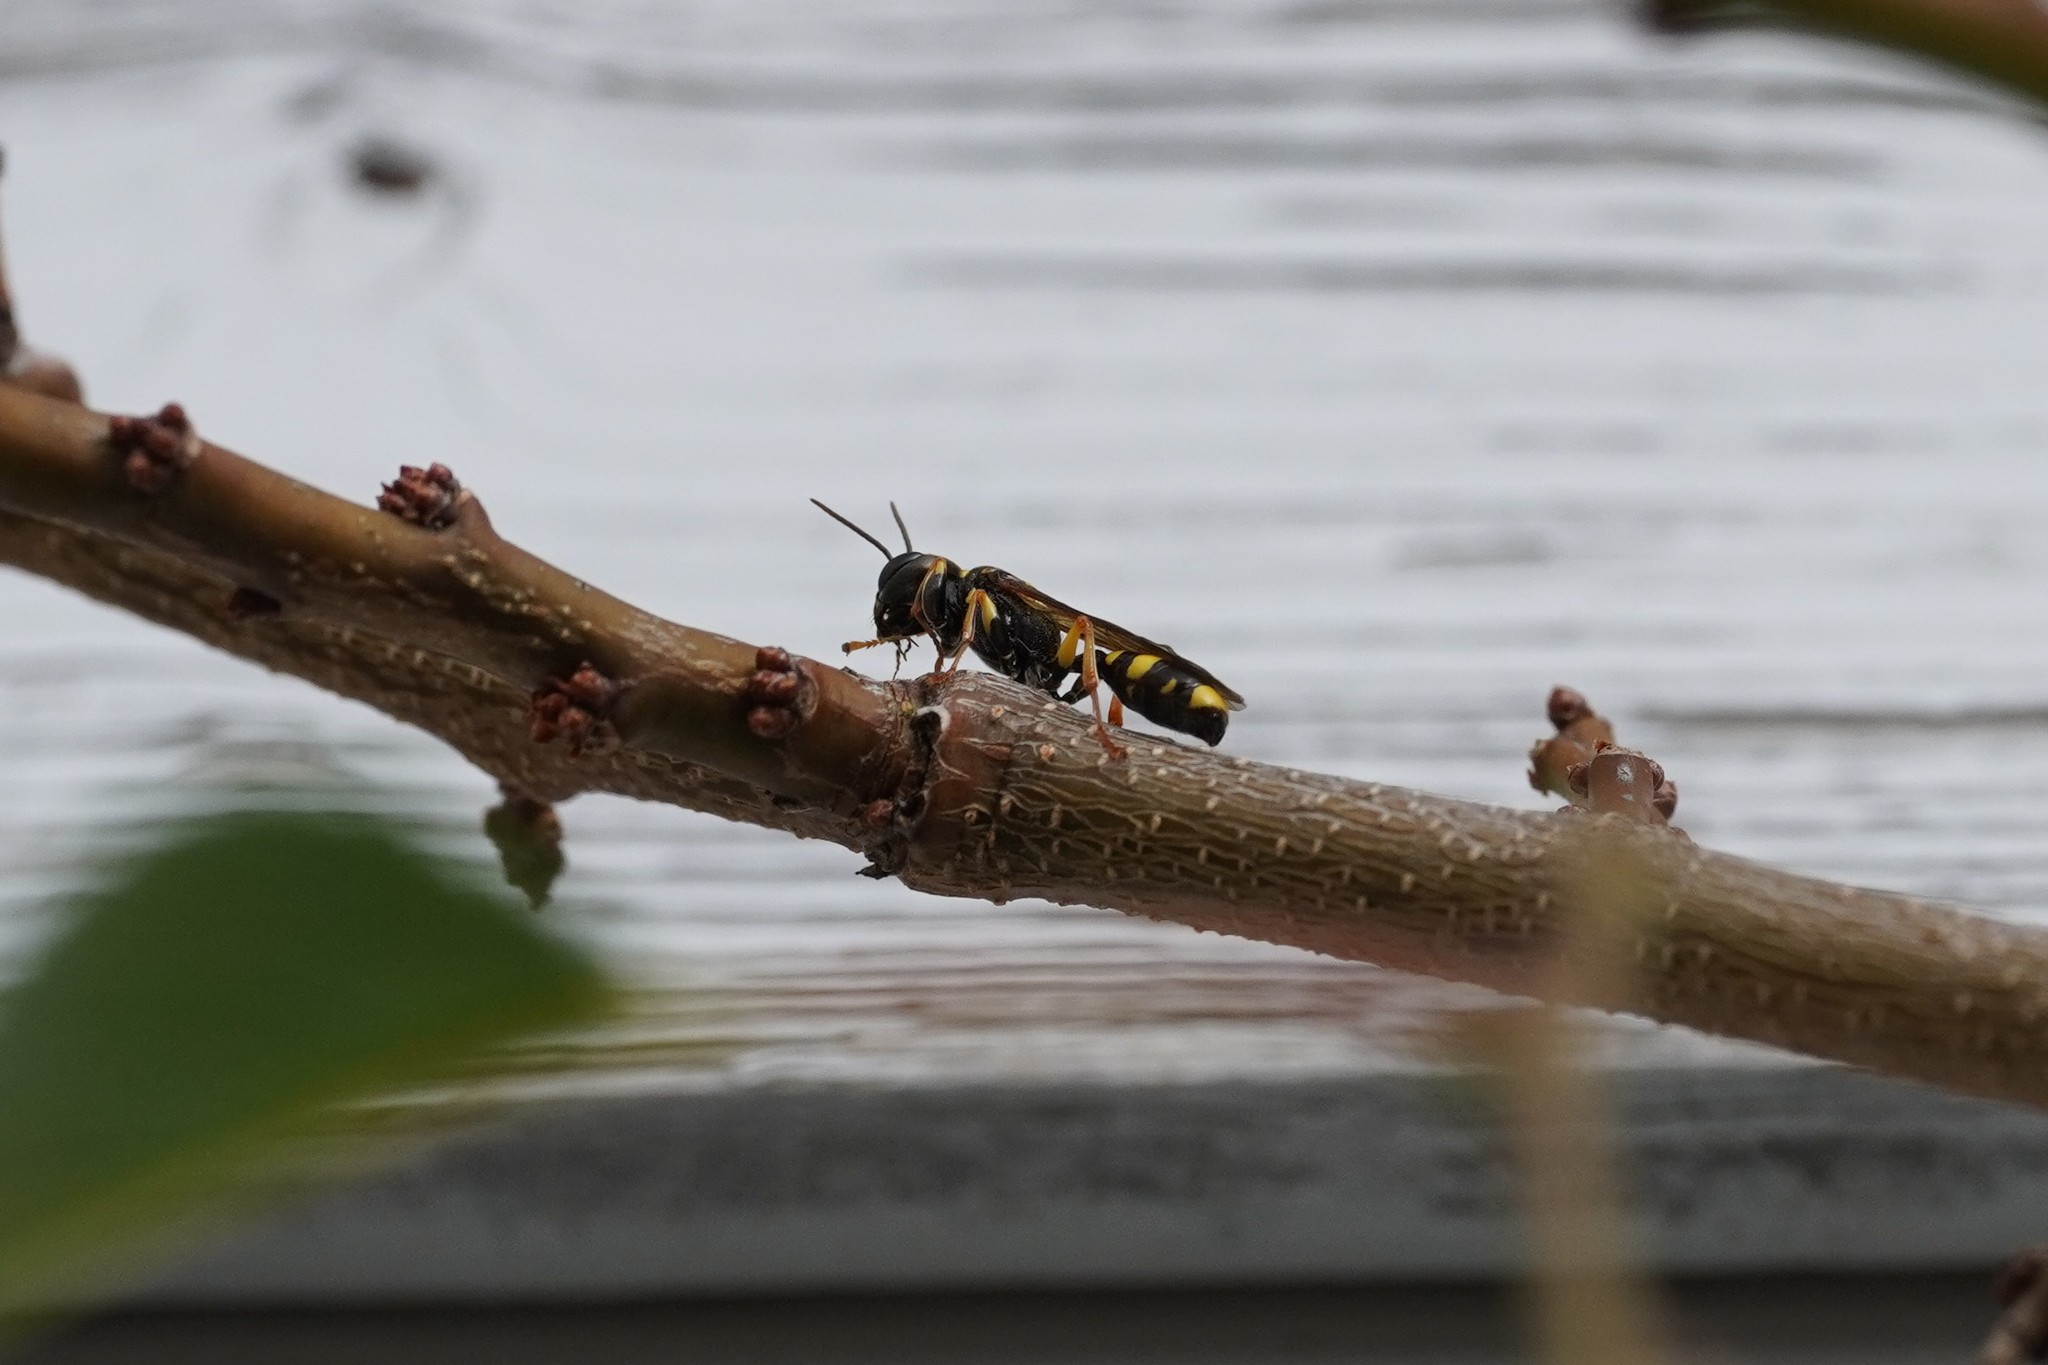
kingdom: Animalia
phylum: Arthropoda
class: Insecta
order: Hymenoptera
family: Crabronidae
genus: Mellinus
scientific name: Mellinus arvensis
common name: Field digger wasp
